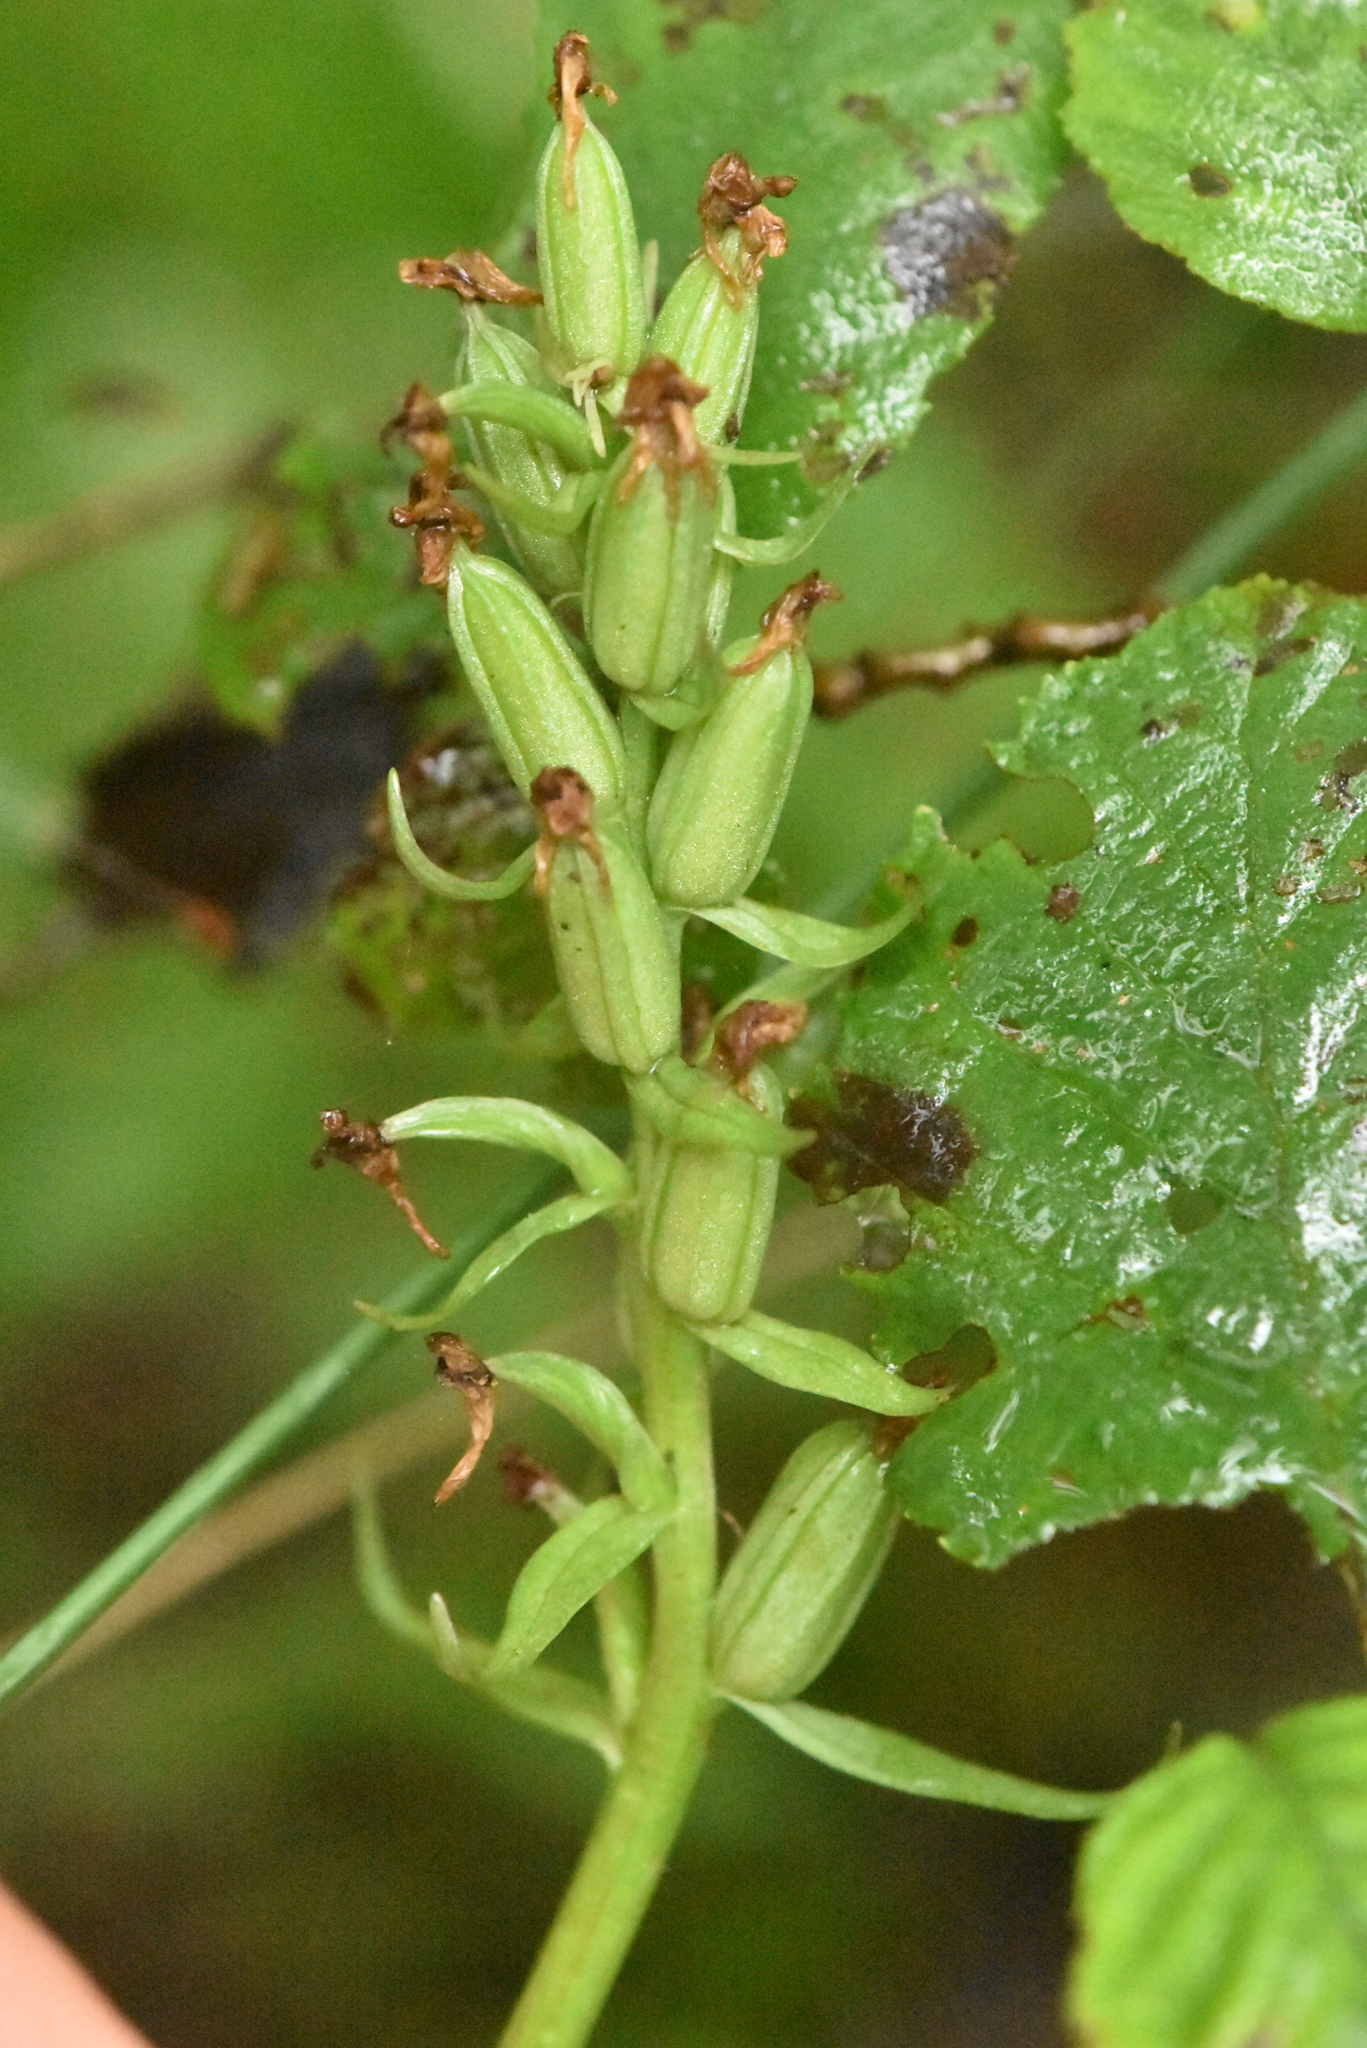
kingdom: Plantae
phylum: Tracheophyta
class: Liliopsida
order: Asparagales
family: Orchidaceae
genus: Dactylorhiza
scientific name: Dactylorhiza maculata
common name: Heath spotted-orchid
